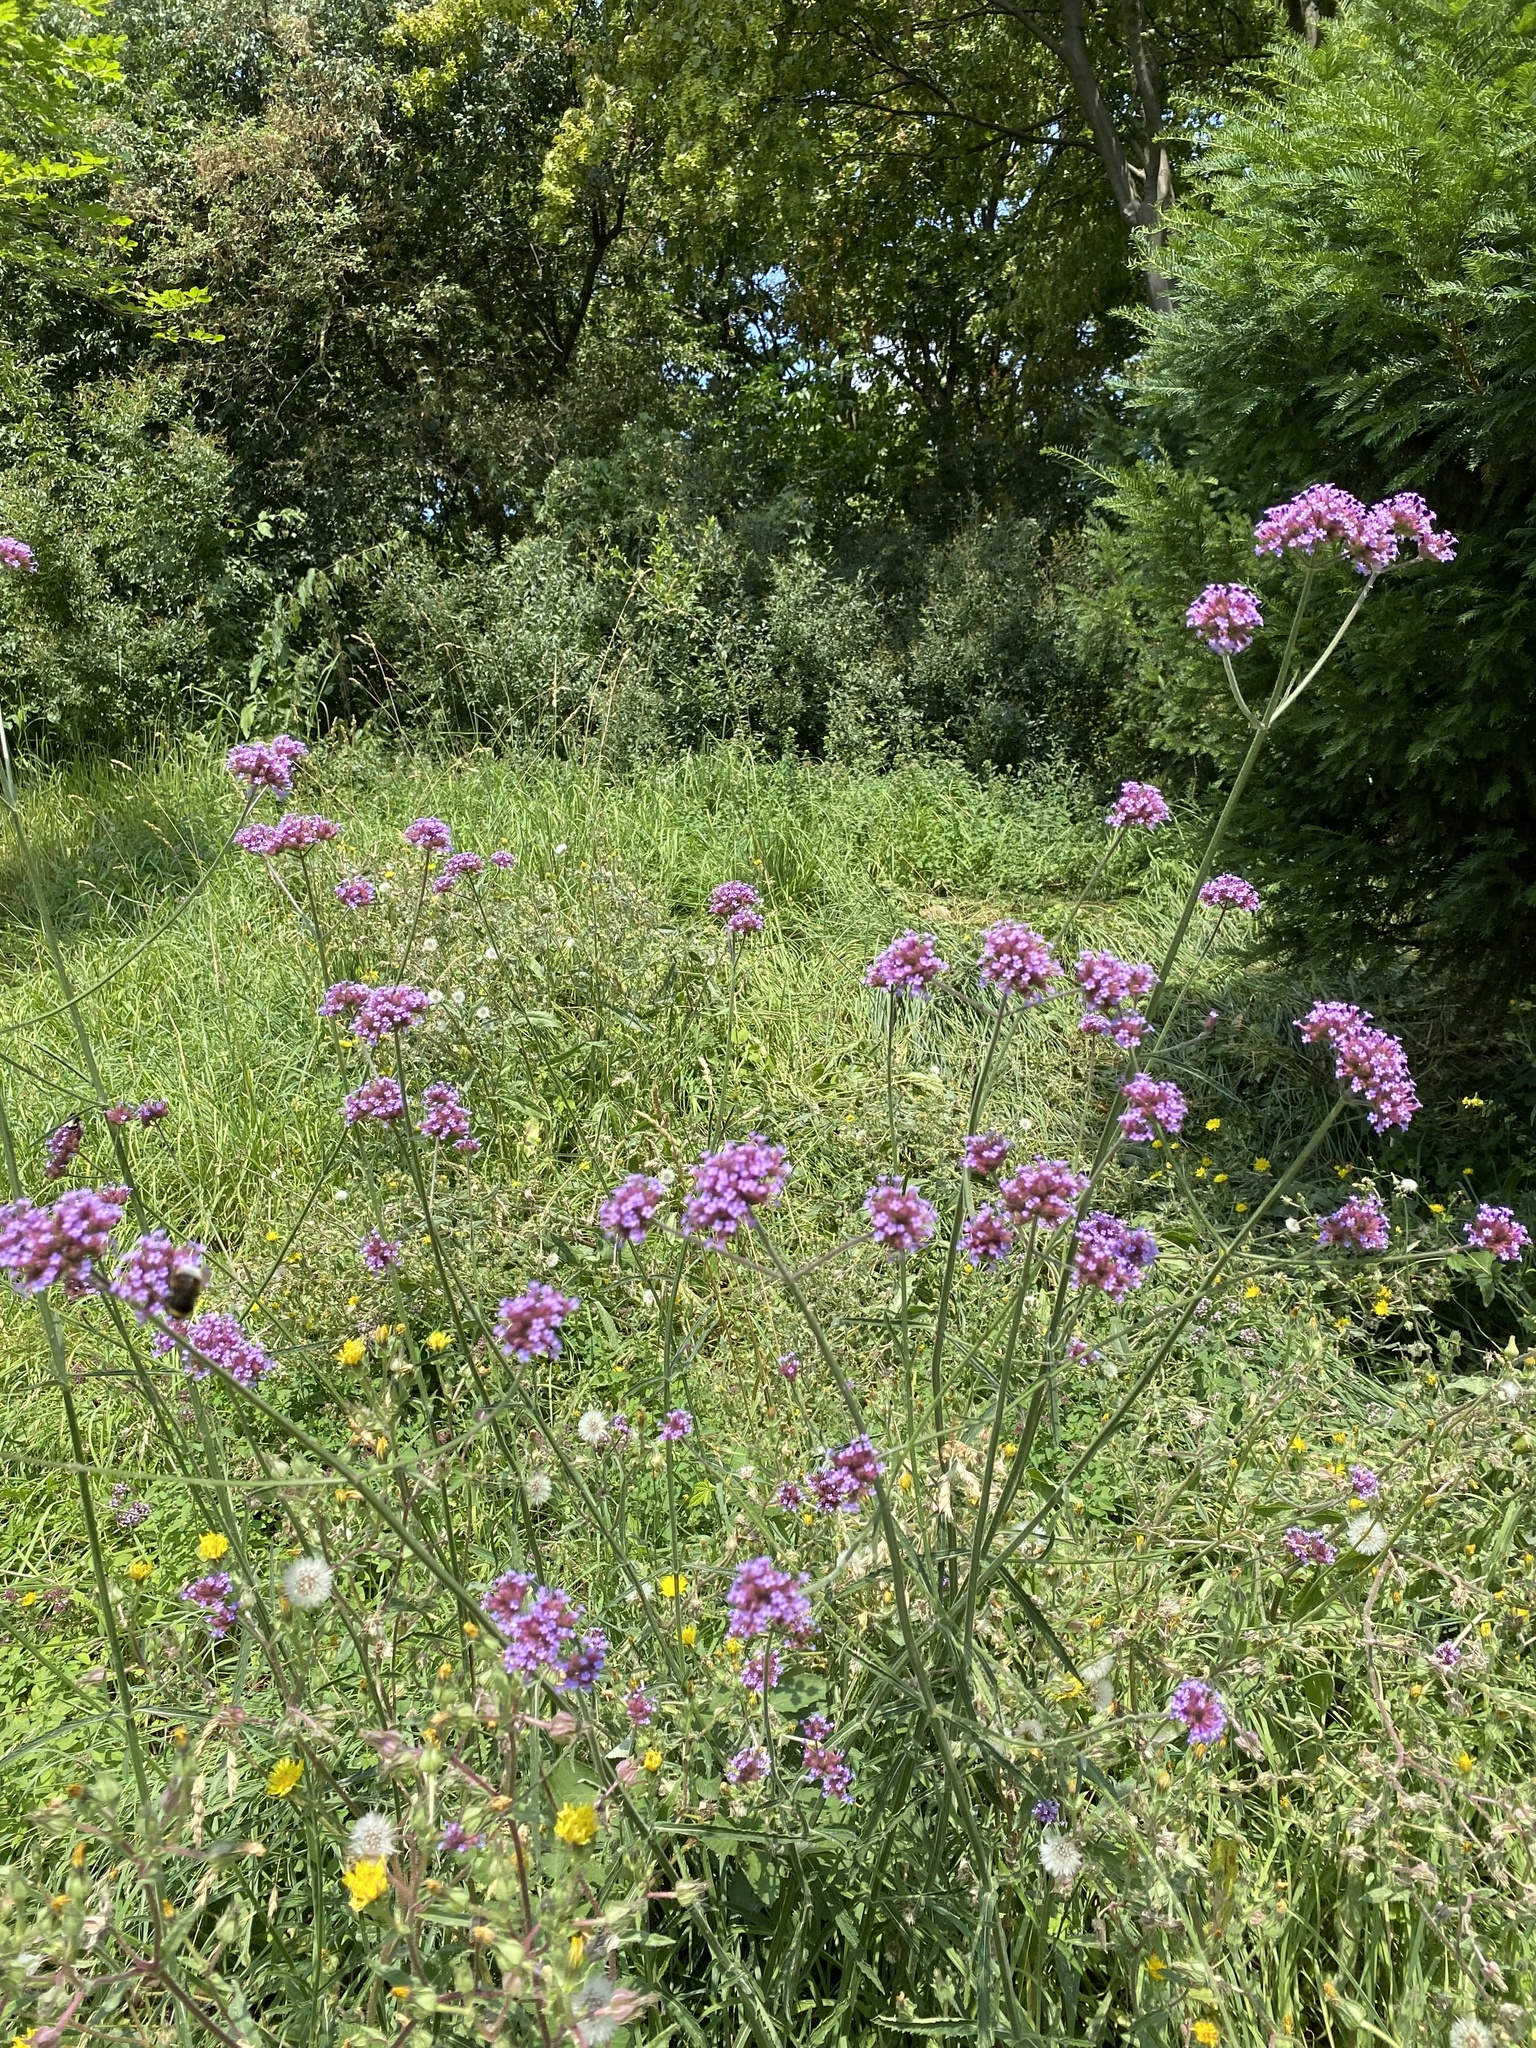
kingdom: Plantae
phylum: Tracheophyta
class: Magnoliopsida
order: Lamiales
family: Verbenaceae
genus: Verbena
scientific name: Verbena bonariensis
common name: Purpletop vervain
